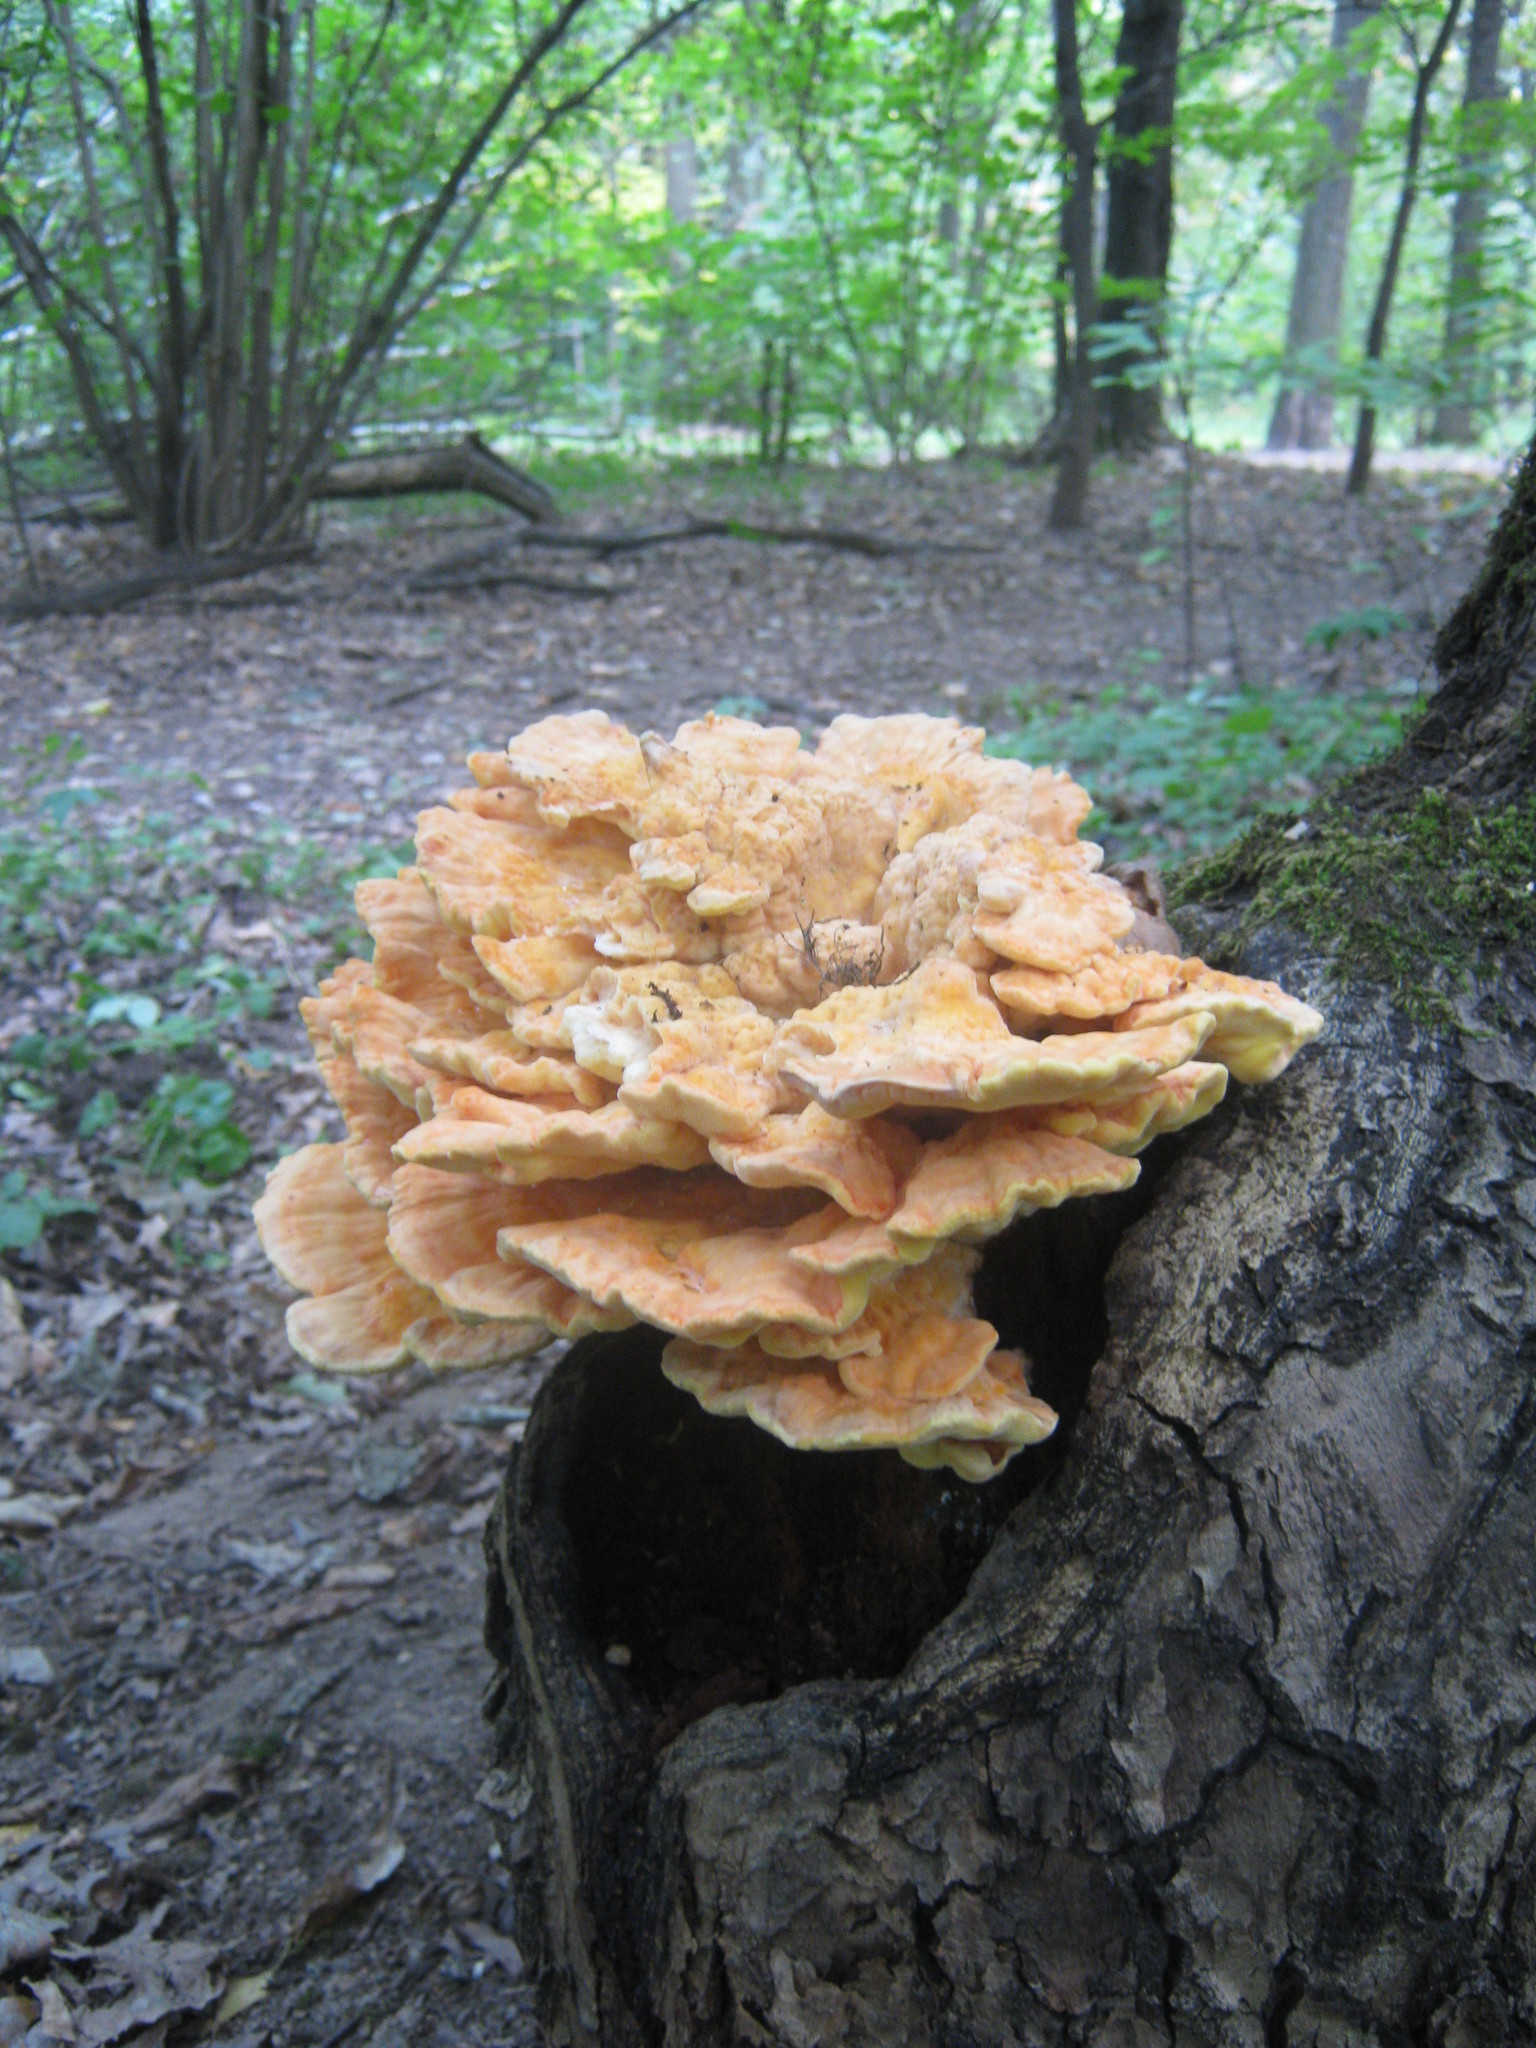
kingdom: Fungi
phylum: Basidiomycota
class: Agaricomycetes
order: Polyporales
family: Laetiporaceae
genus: Laetiporus
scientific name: Laetiporus sulphureus
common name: Chicken of the woods
